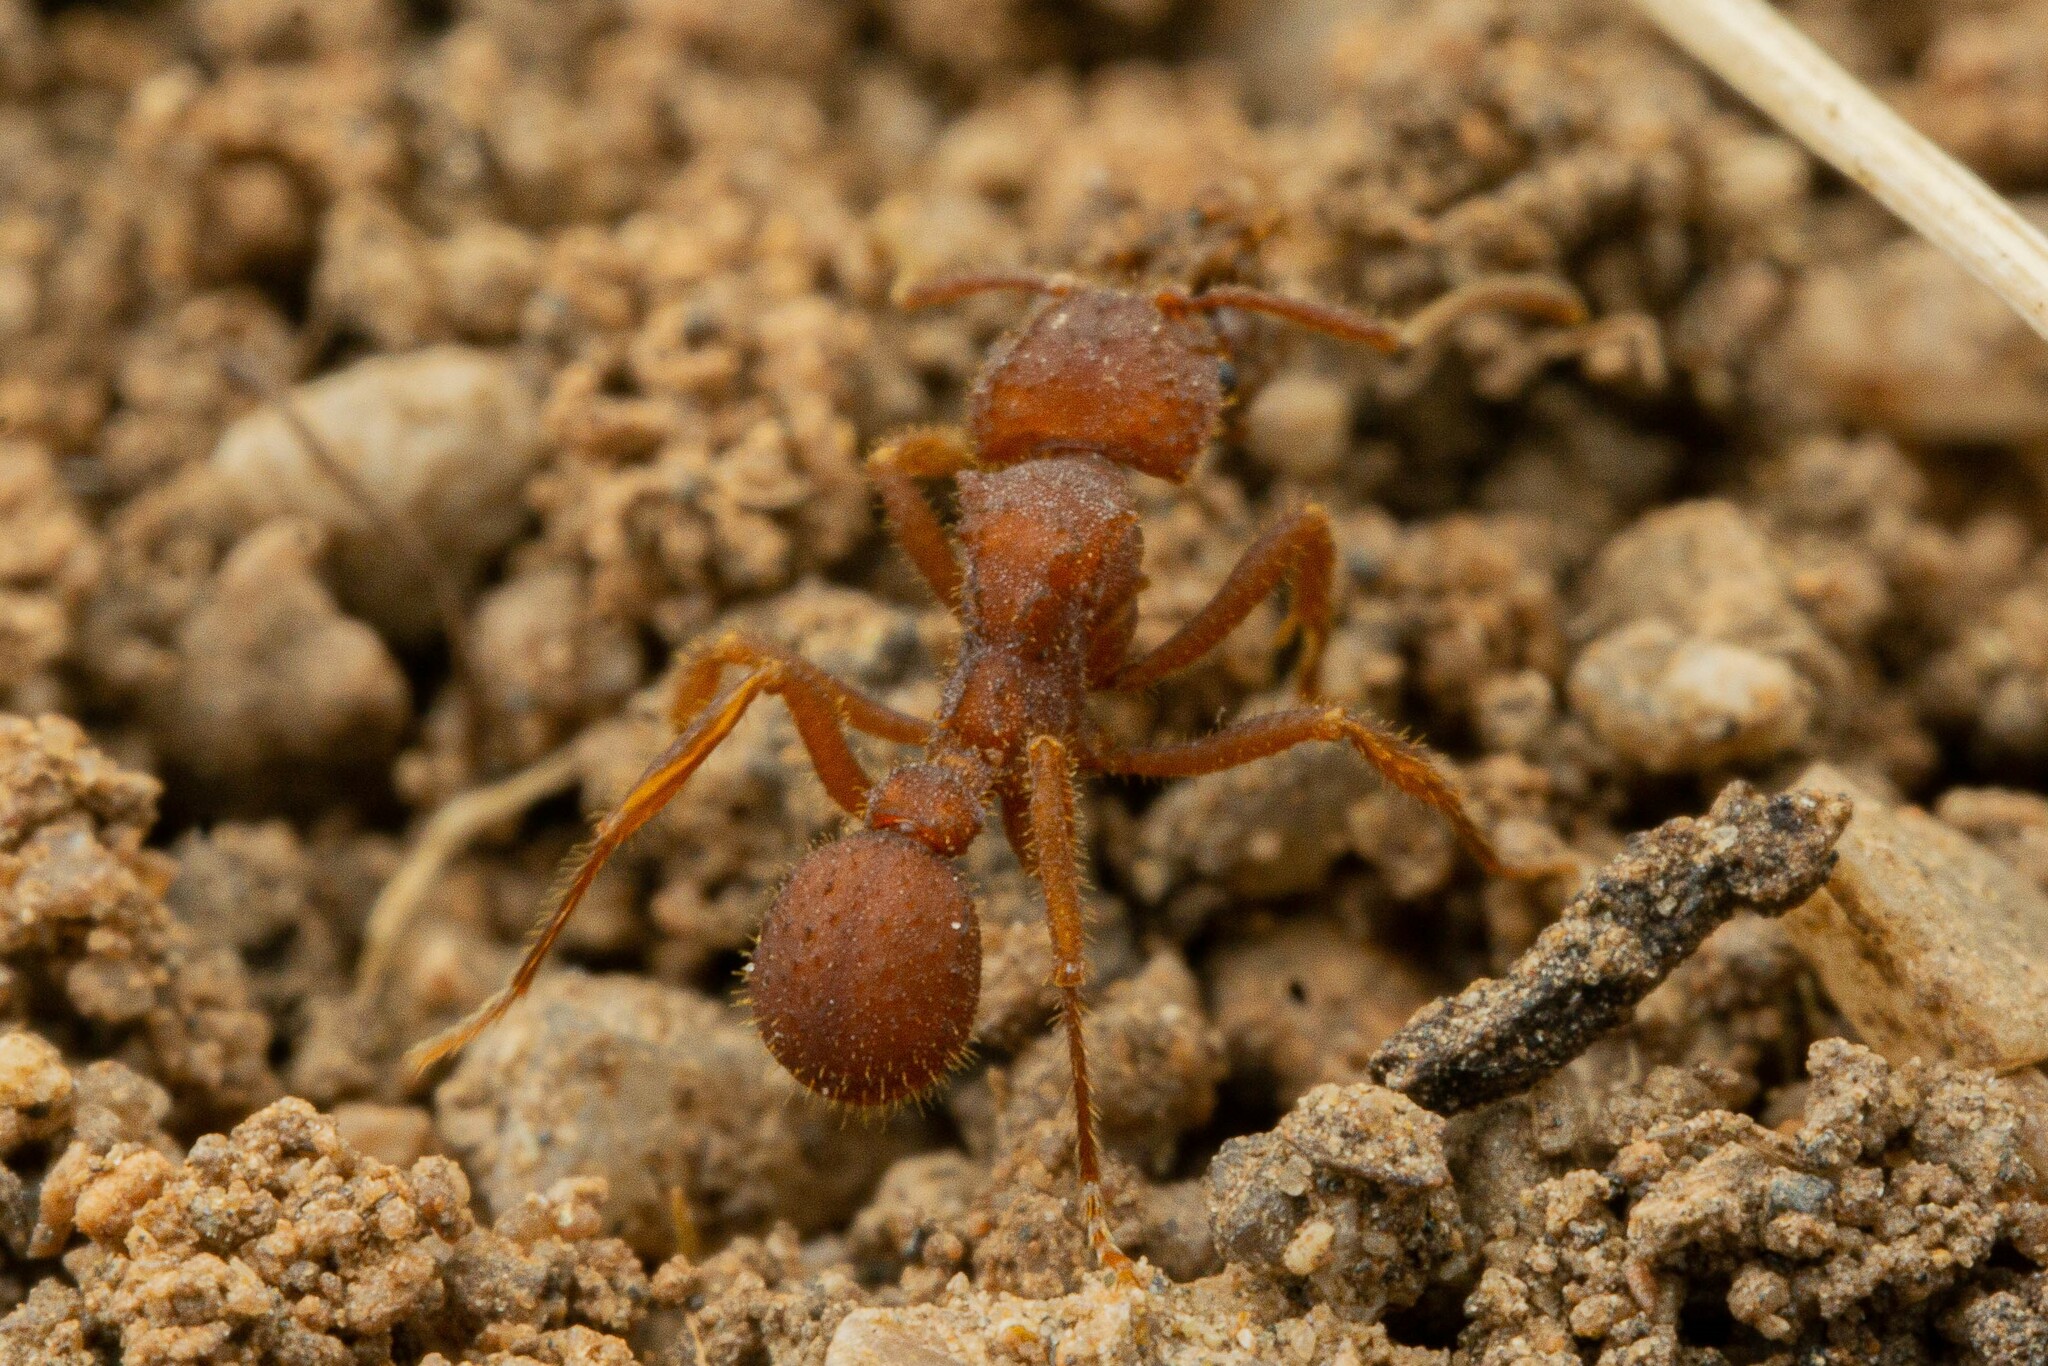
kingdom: Animalia
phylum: Arthropoda
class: Insecta
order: Hymenoptera
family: Formicidae
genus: Trachymyrmex
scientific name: Trachymyrmex desertorum
